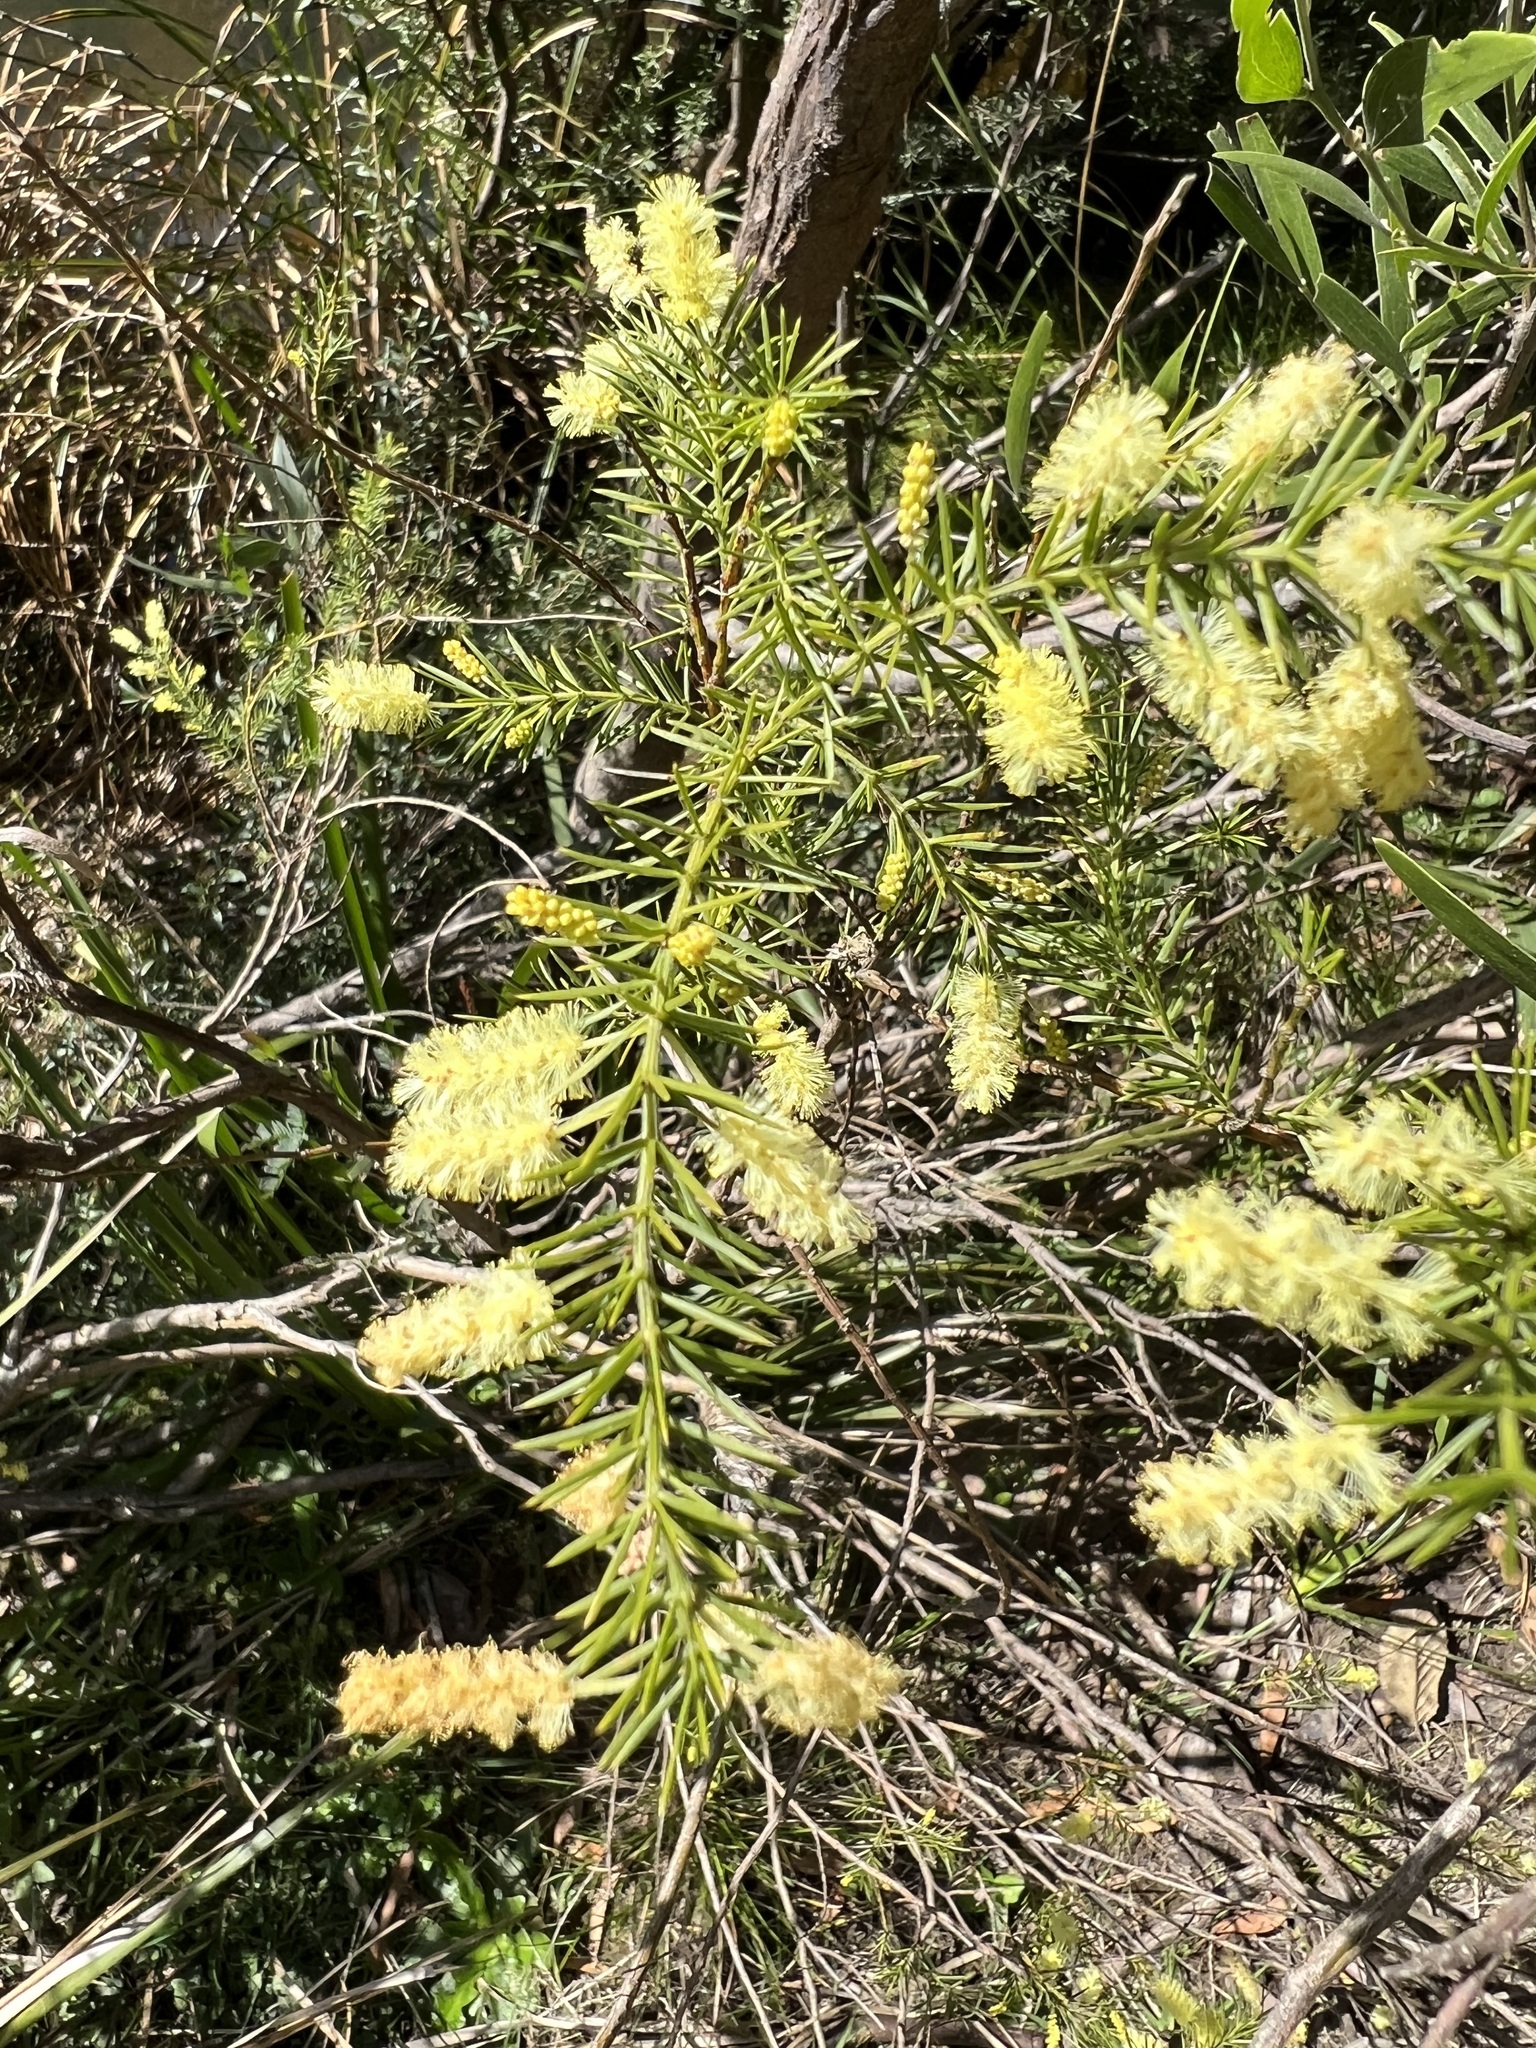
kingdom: Plantae
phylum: Tracheophyta
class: Magnoliopsida
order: Fabales
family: Fabaceae
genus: Acacia
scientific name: Acacia verticillata
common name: Prickly moses
